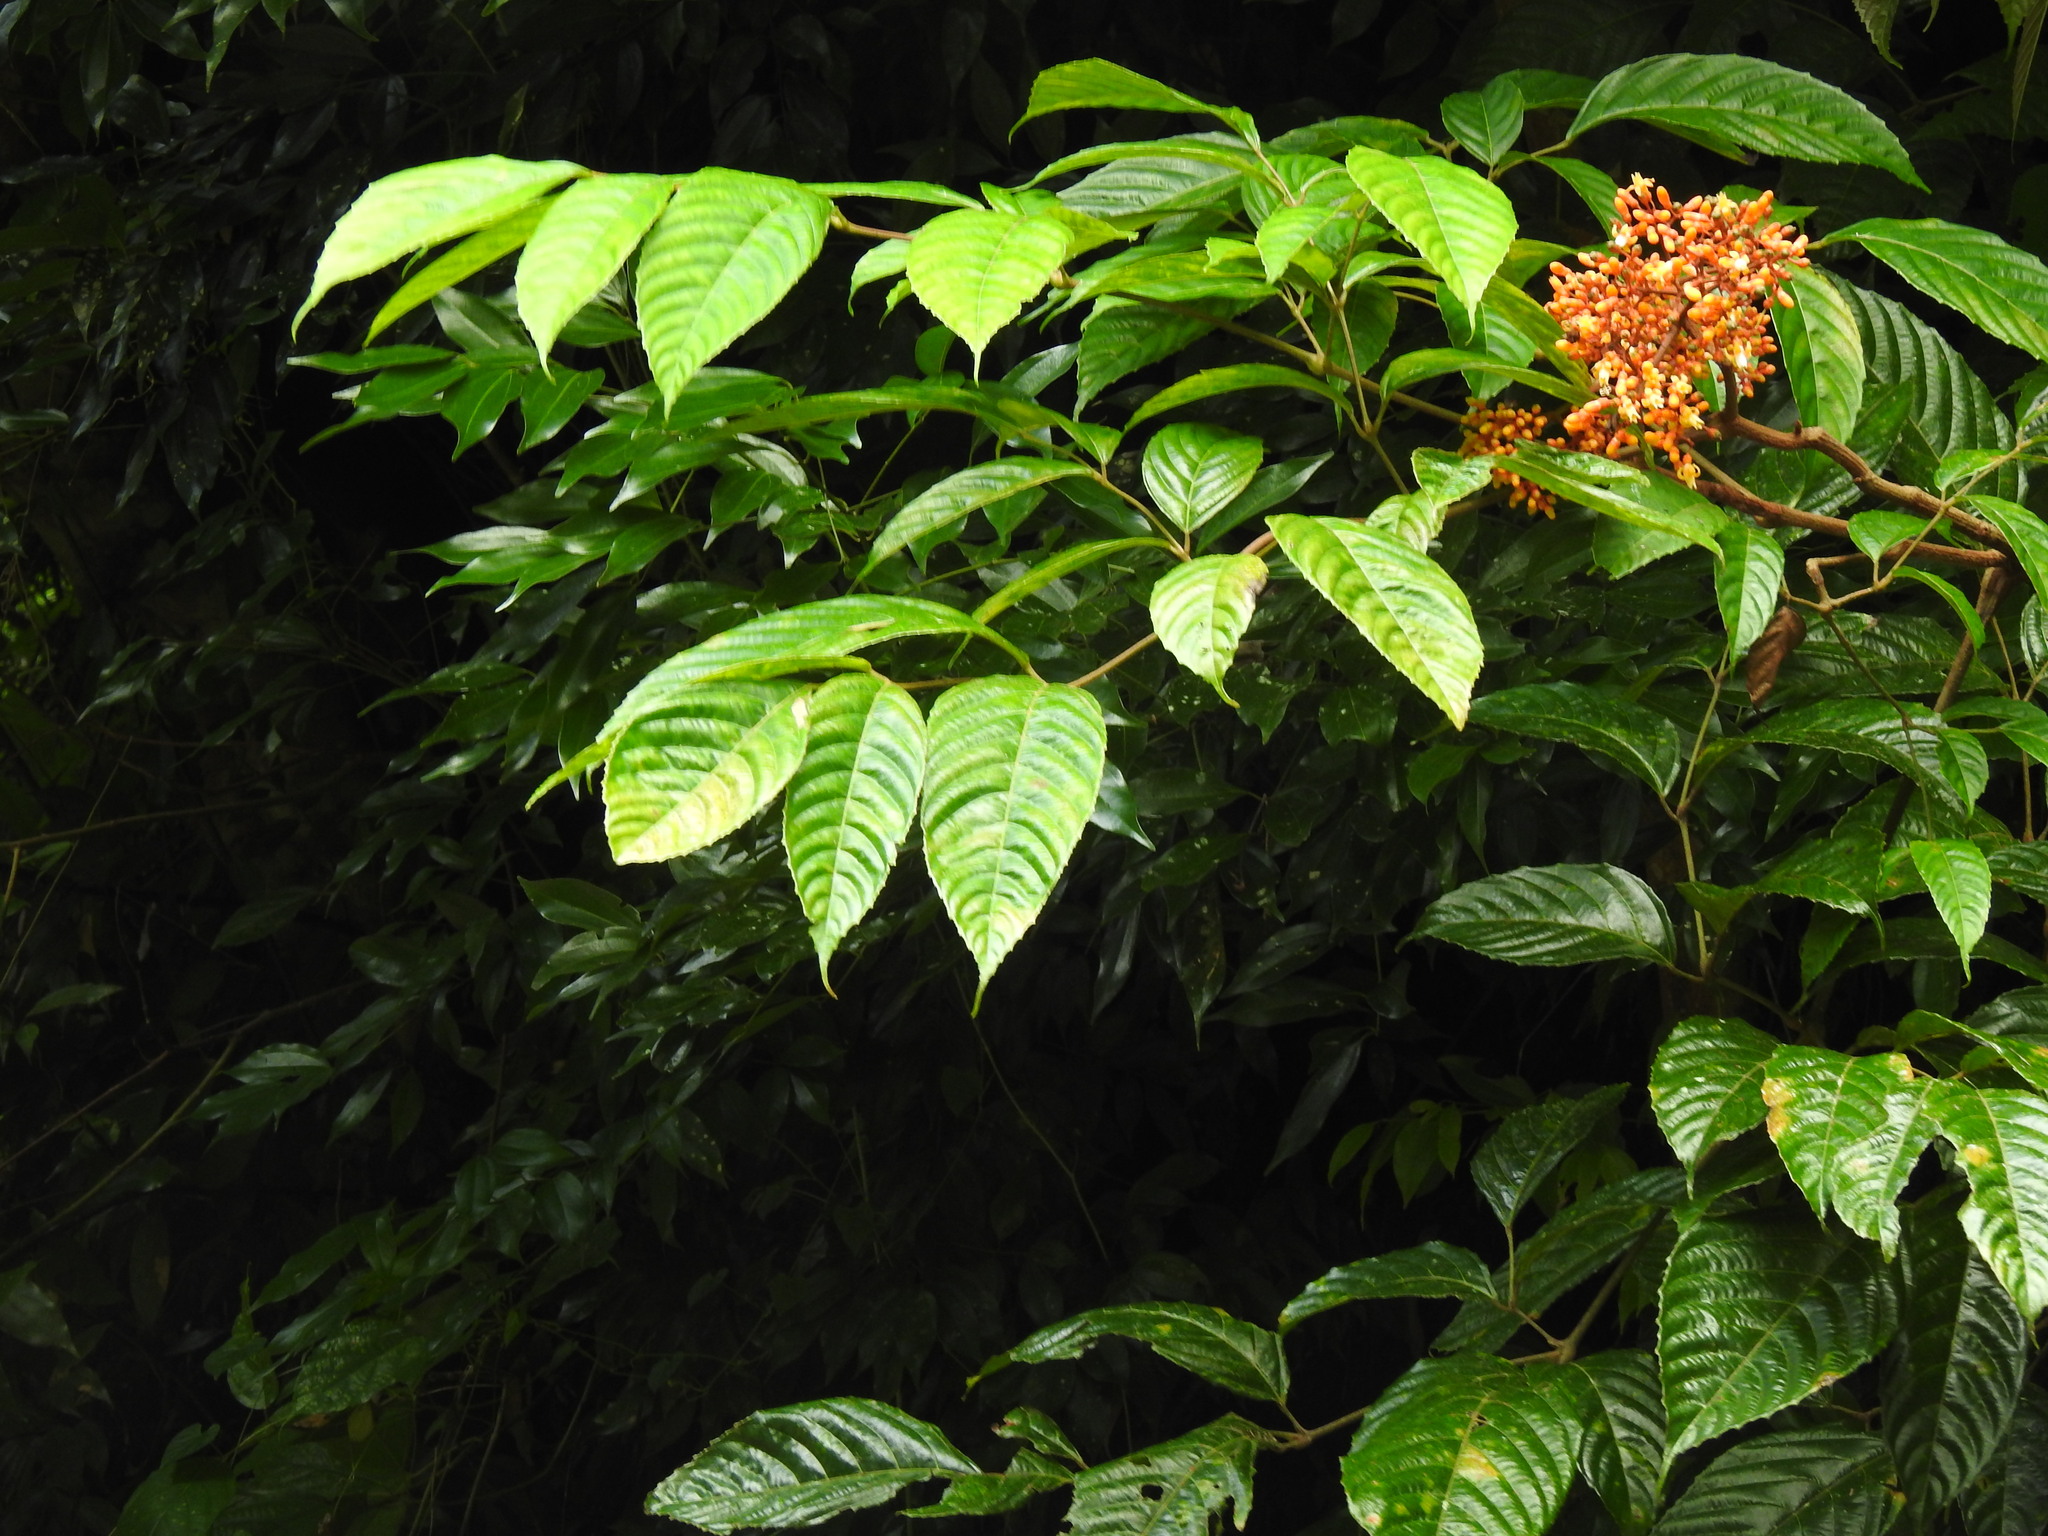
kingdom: Plantae
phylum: Tracheophyta
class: Magnoliopsida
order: Vitales
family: Vitaceae
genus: Leea
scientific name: Leea tinctoria
